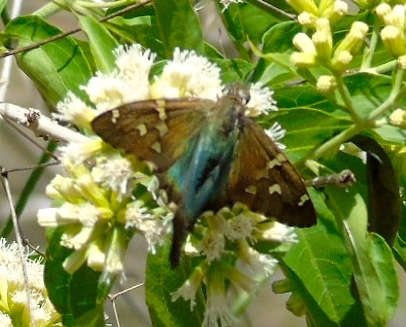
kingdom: Animalia
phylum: Arthropoda
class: Insecta
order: Lepidoptera
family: Hesperiidae
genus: Urbanus
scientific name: Urbanus proteus
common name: Long-tailed skipper
